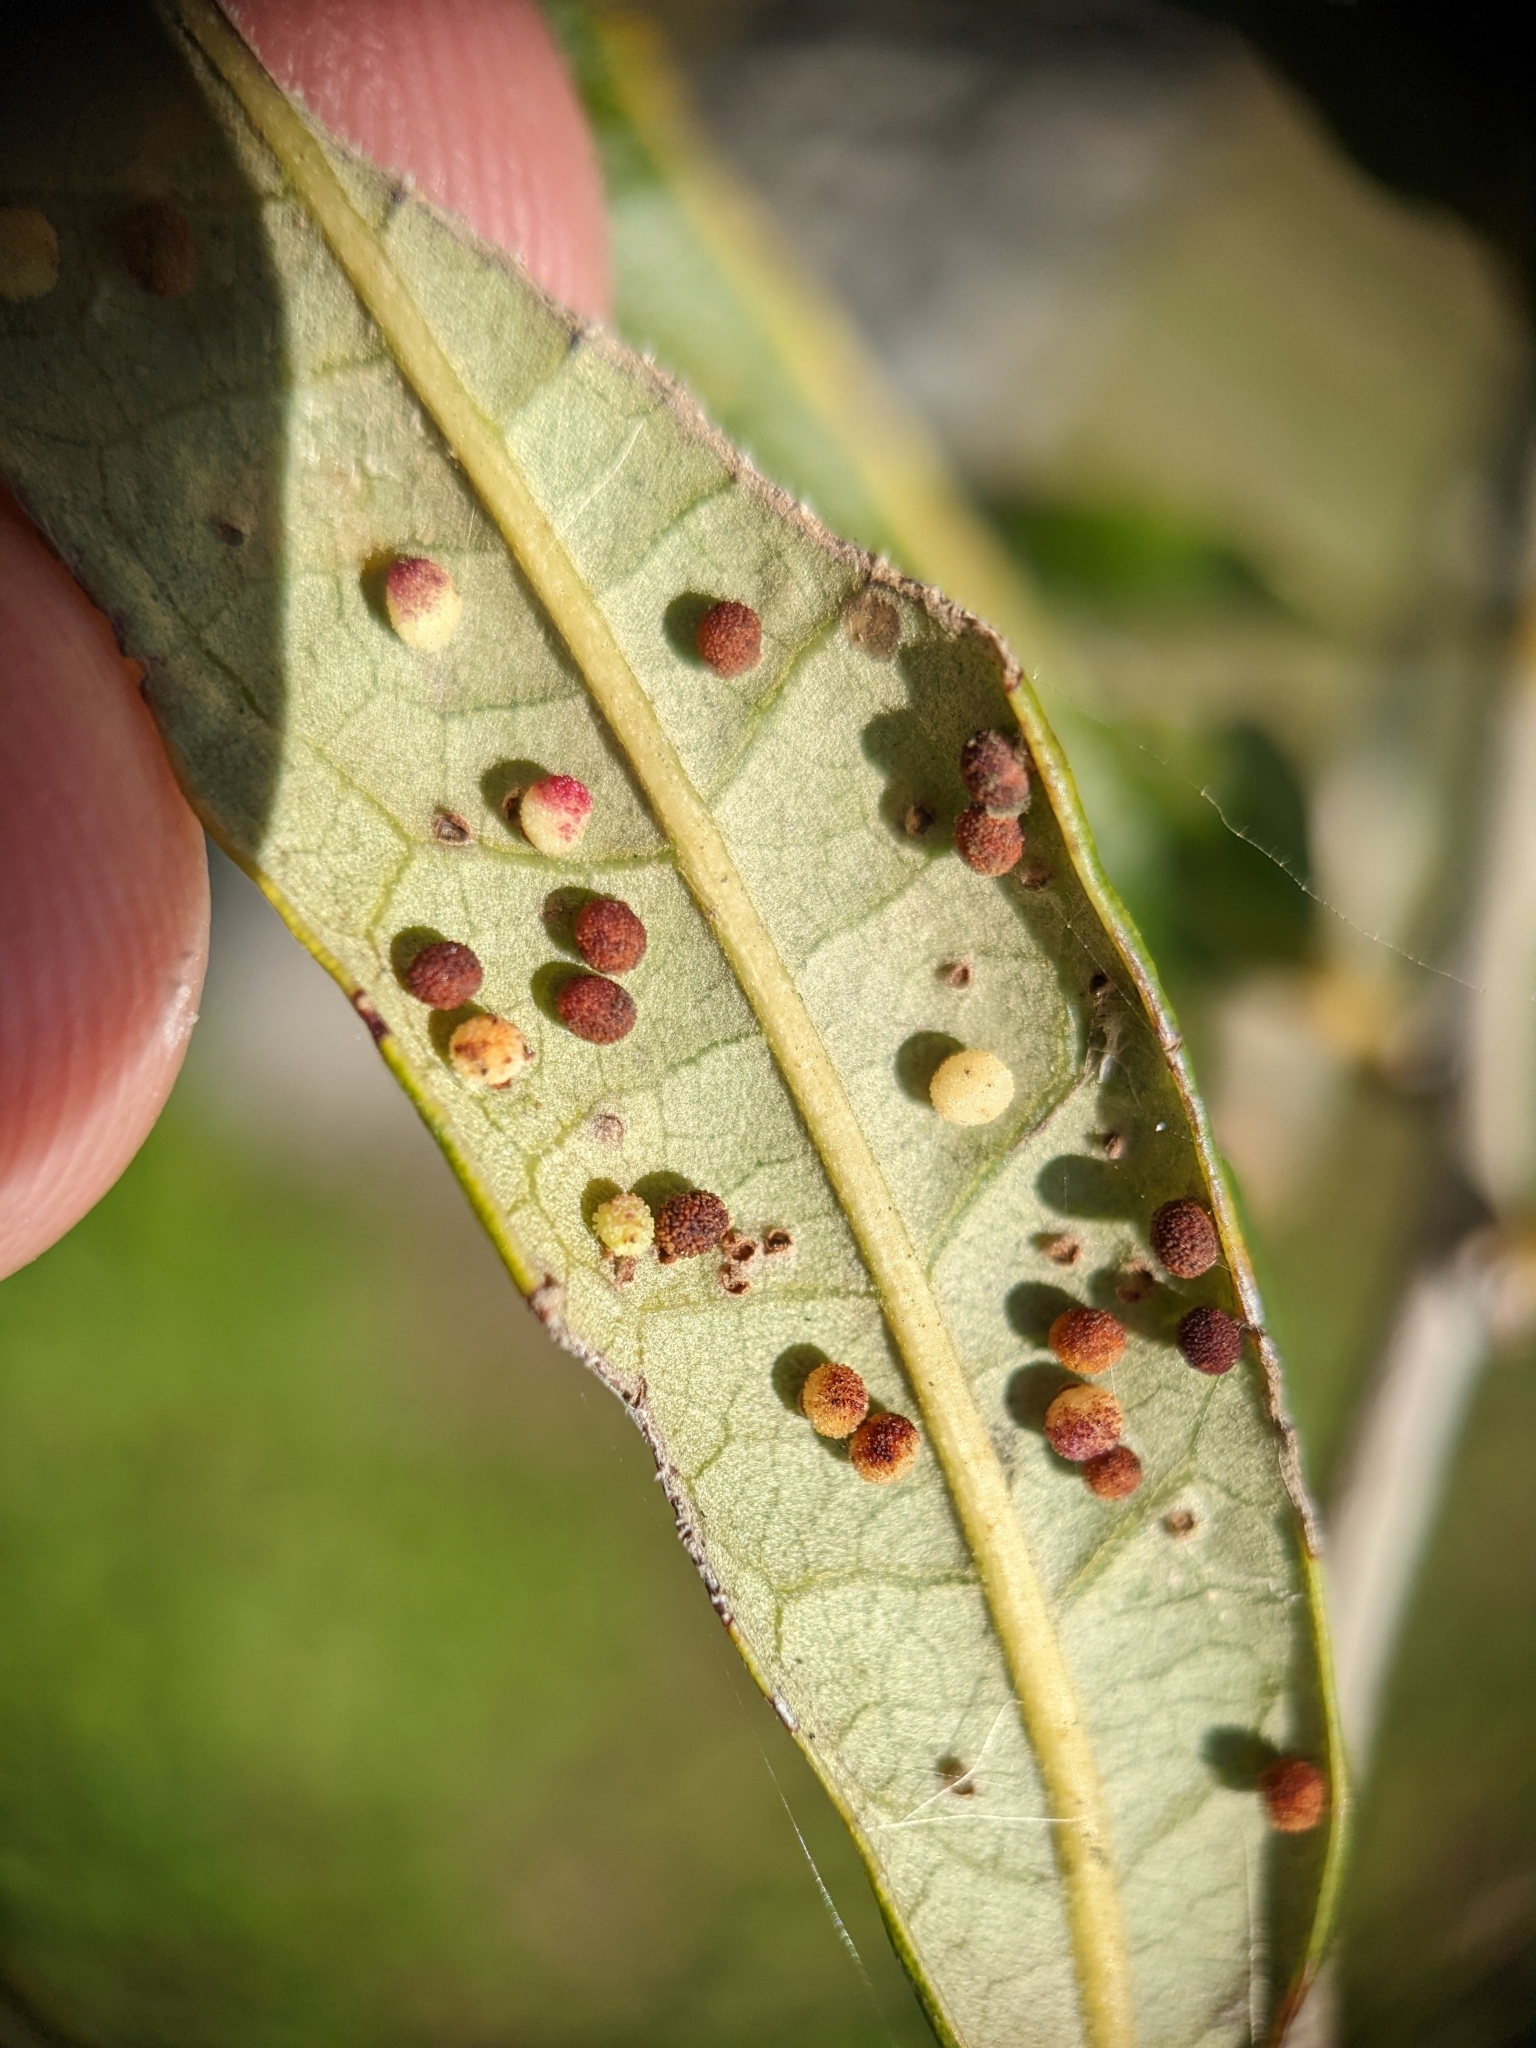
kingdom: Animalia
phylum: Arthropoda
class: Insecta
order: Hymenoptera
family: Cynipidae
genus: Neuroterus
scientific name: Neuroterus saltarius
